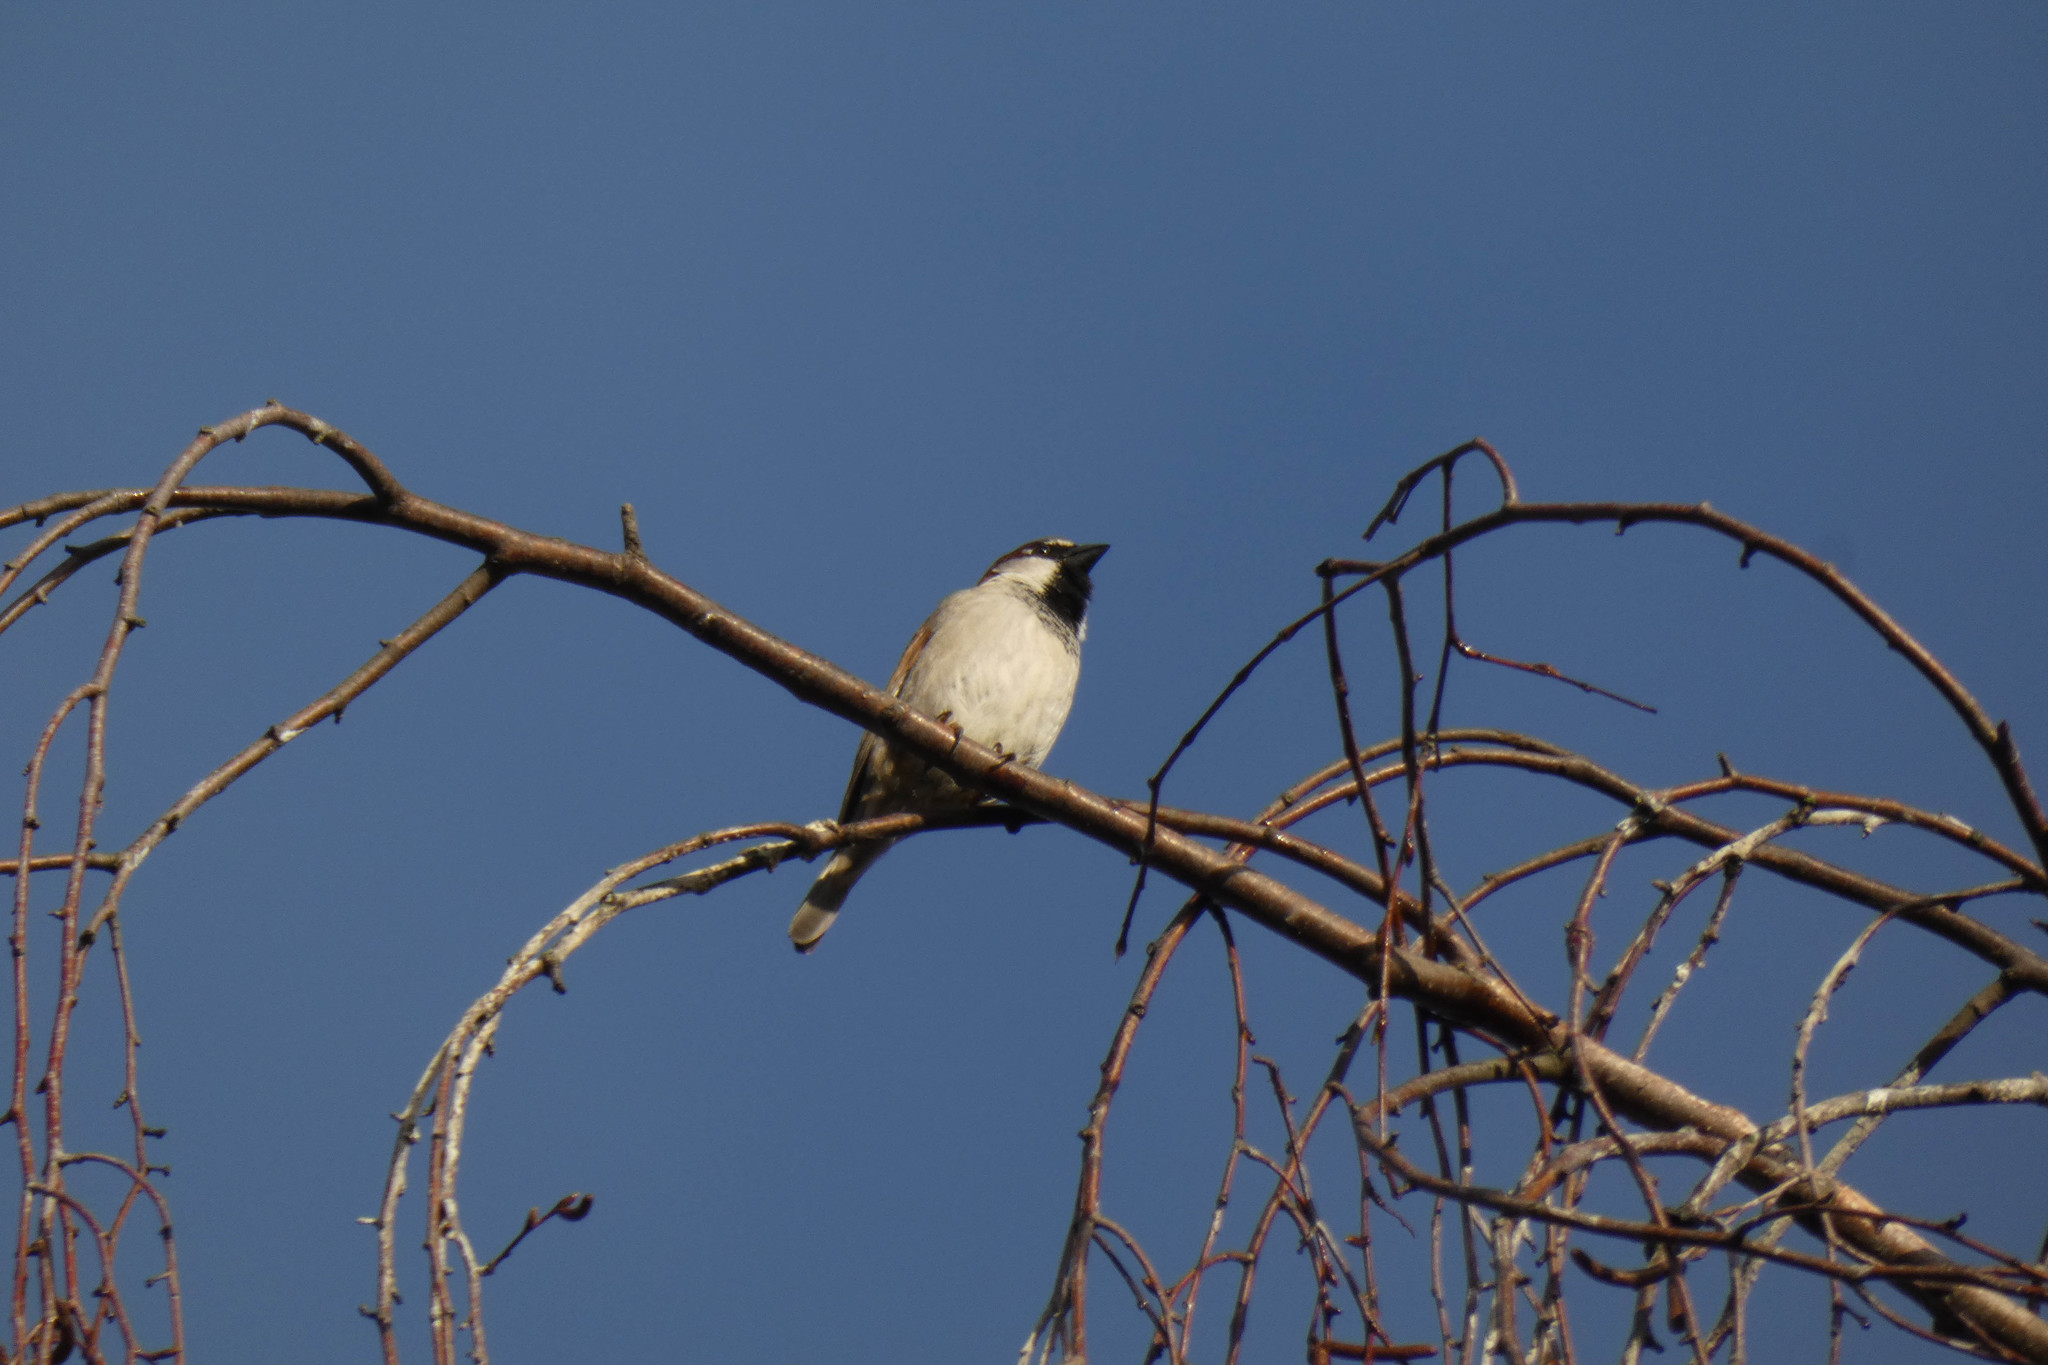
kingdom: Animalia
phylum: Chordata
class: Aves
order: Passeriformes
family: Passeridae
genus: Passer
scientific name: Passer domesticus
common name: House sparrow
